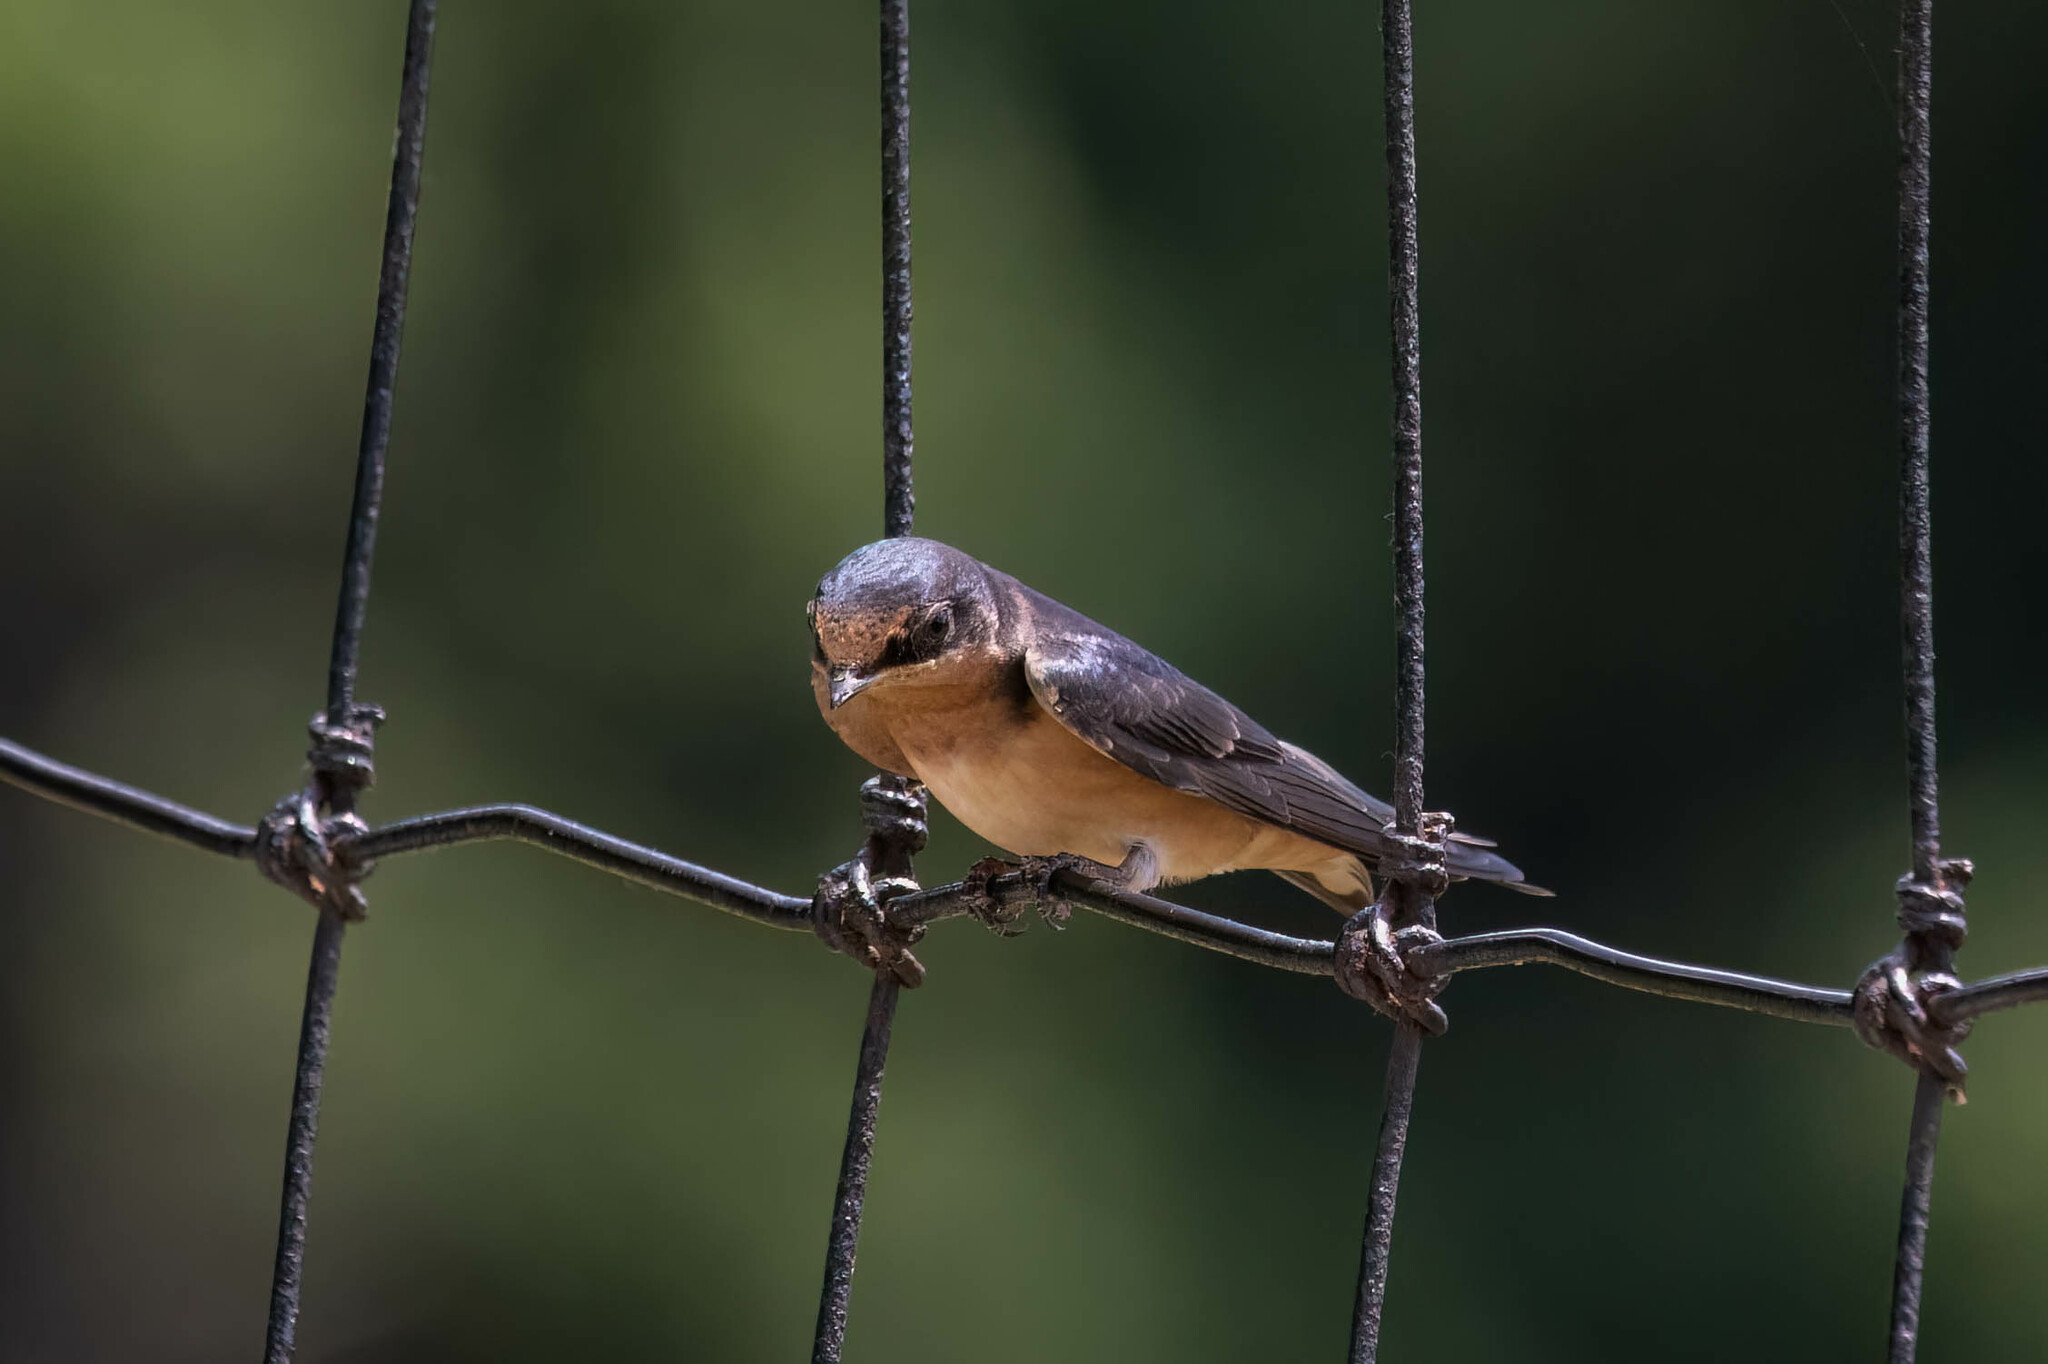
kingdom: Animalia
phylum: Chordata
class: Aves
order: Passeriformes
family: Hirundinidae
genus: Hirundo
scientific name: Hirundo rustica
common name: Barn swallow
